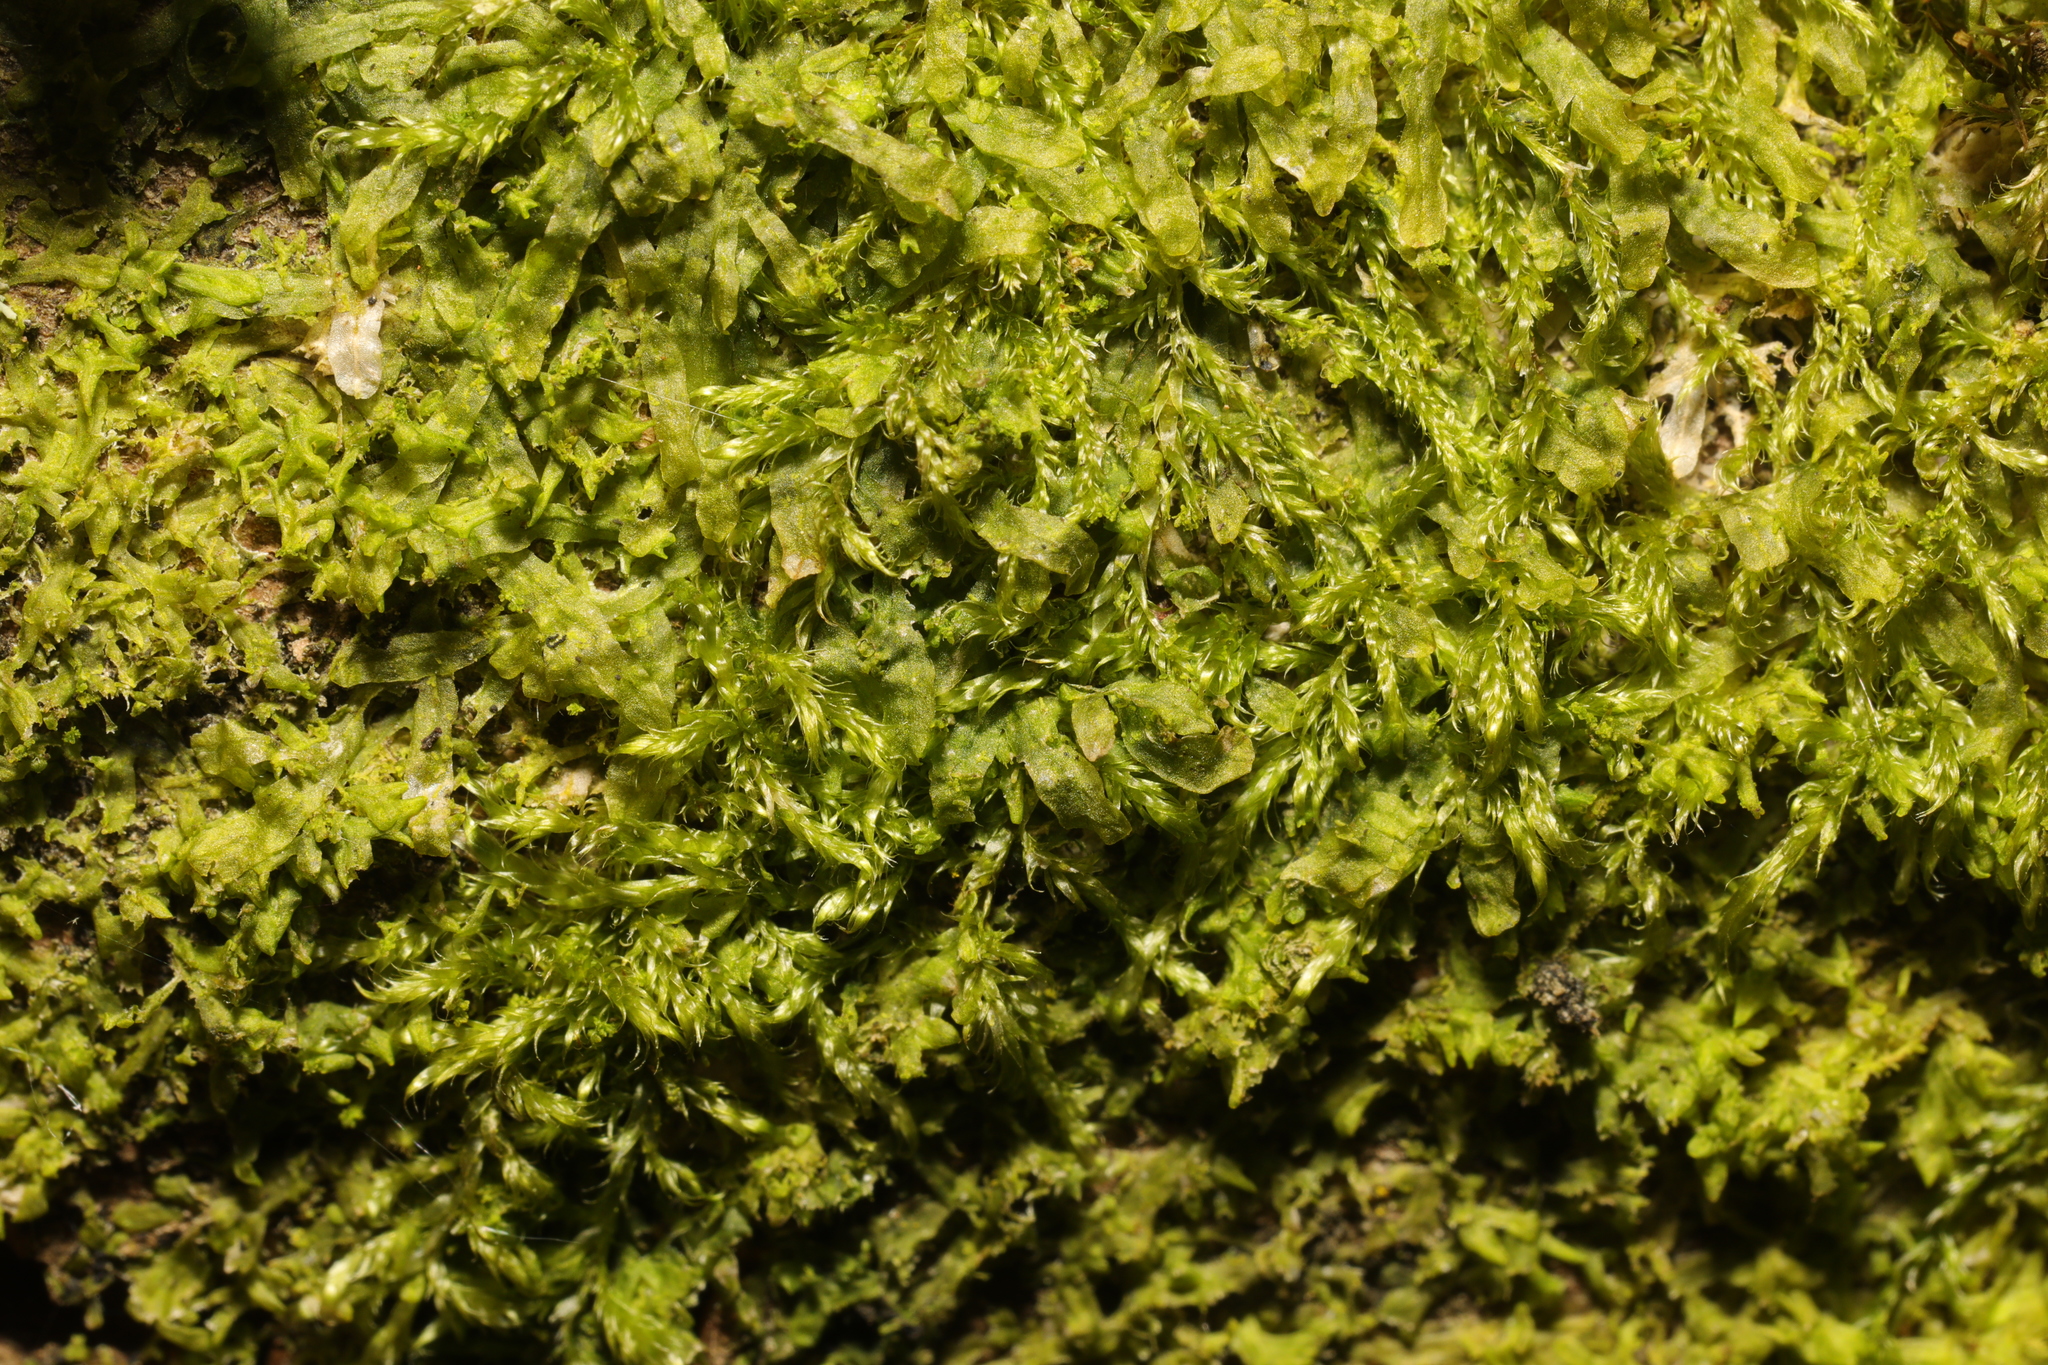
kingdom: Plantae
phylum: Marchantiophyta
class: Jungermanniopsida
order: Metzgeriales
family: Metzgeriaceae
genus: Metzgeria
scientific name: Metzgeria furcata
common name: Forked veilwort
